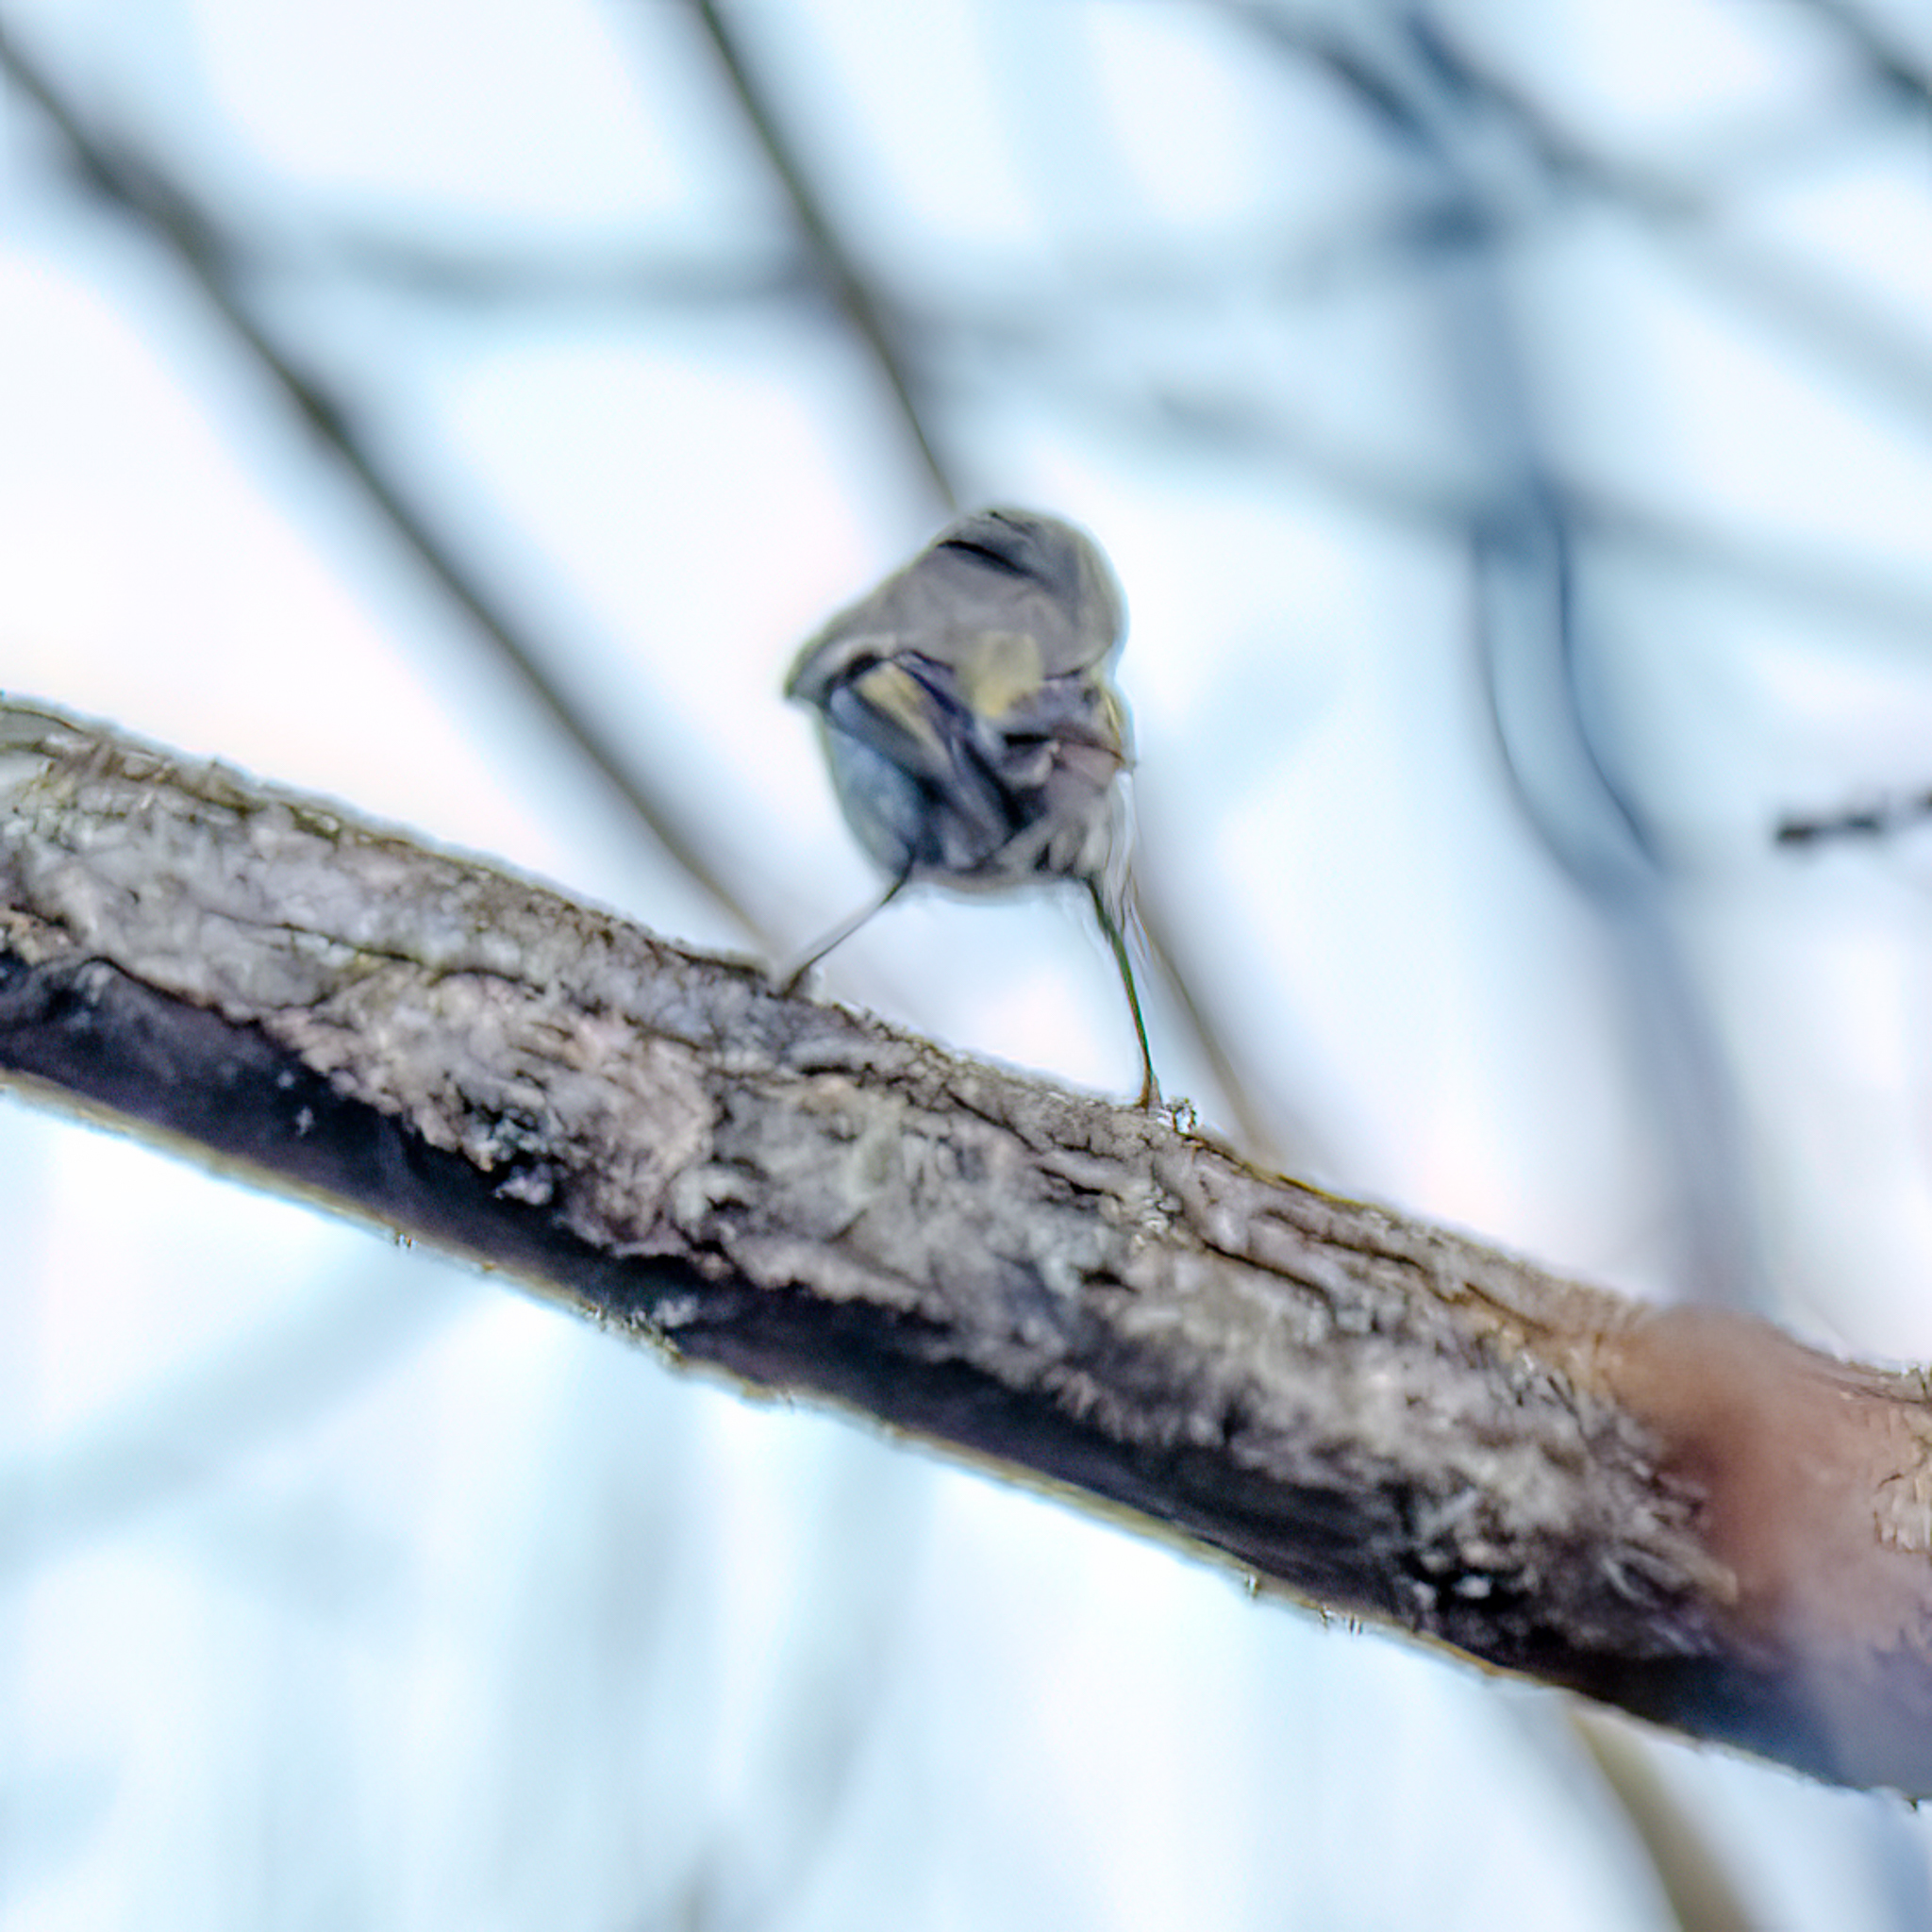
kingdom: Animalia
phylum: Chordata
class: Aves
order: Passeriformes
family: Regulidae
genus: Regulus
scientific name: Regulus satrapa
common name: Golden-crowned kinglet
